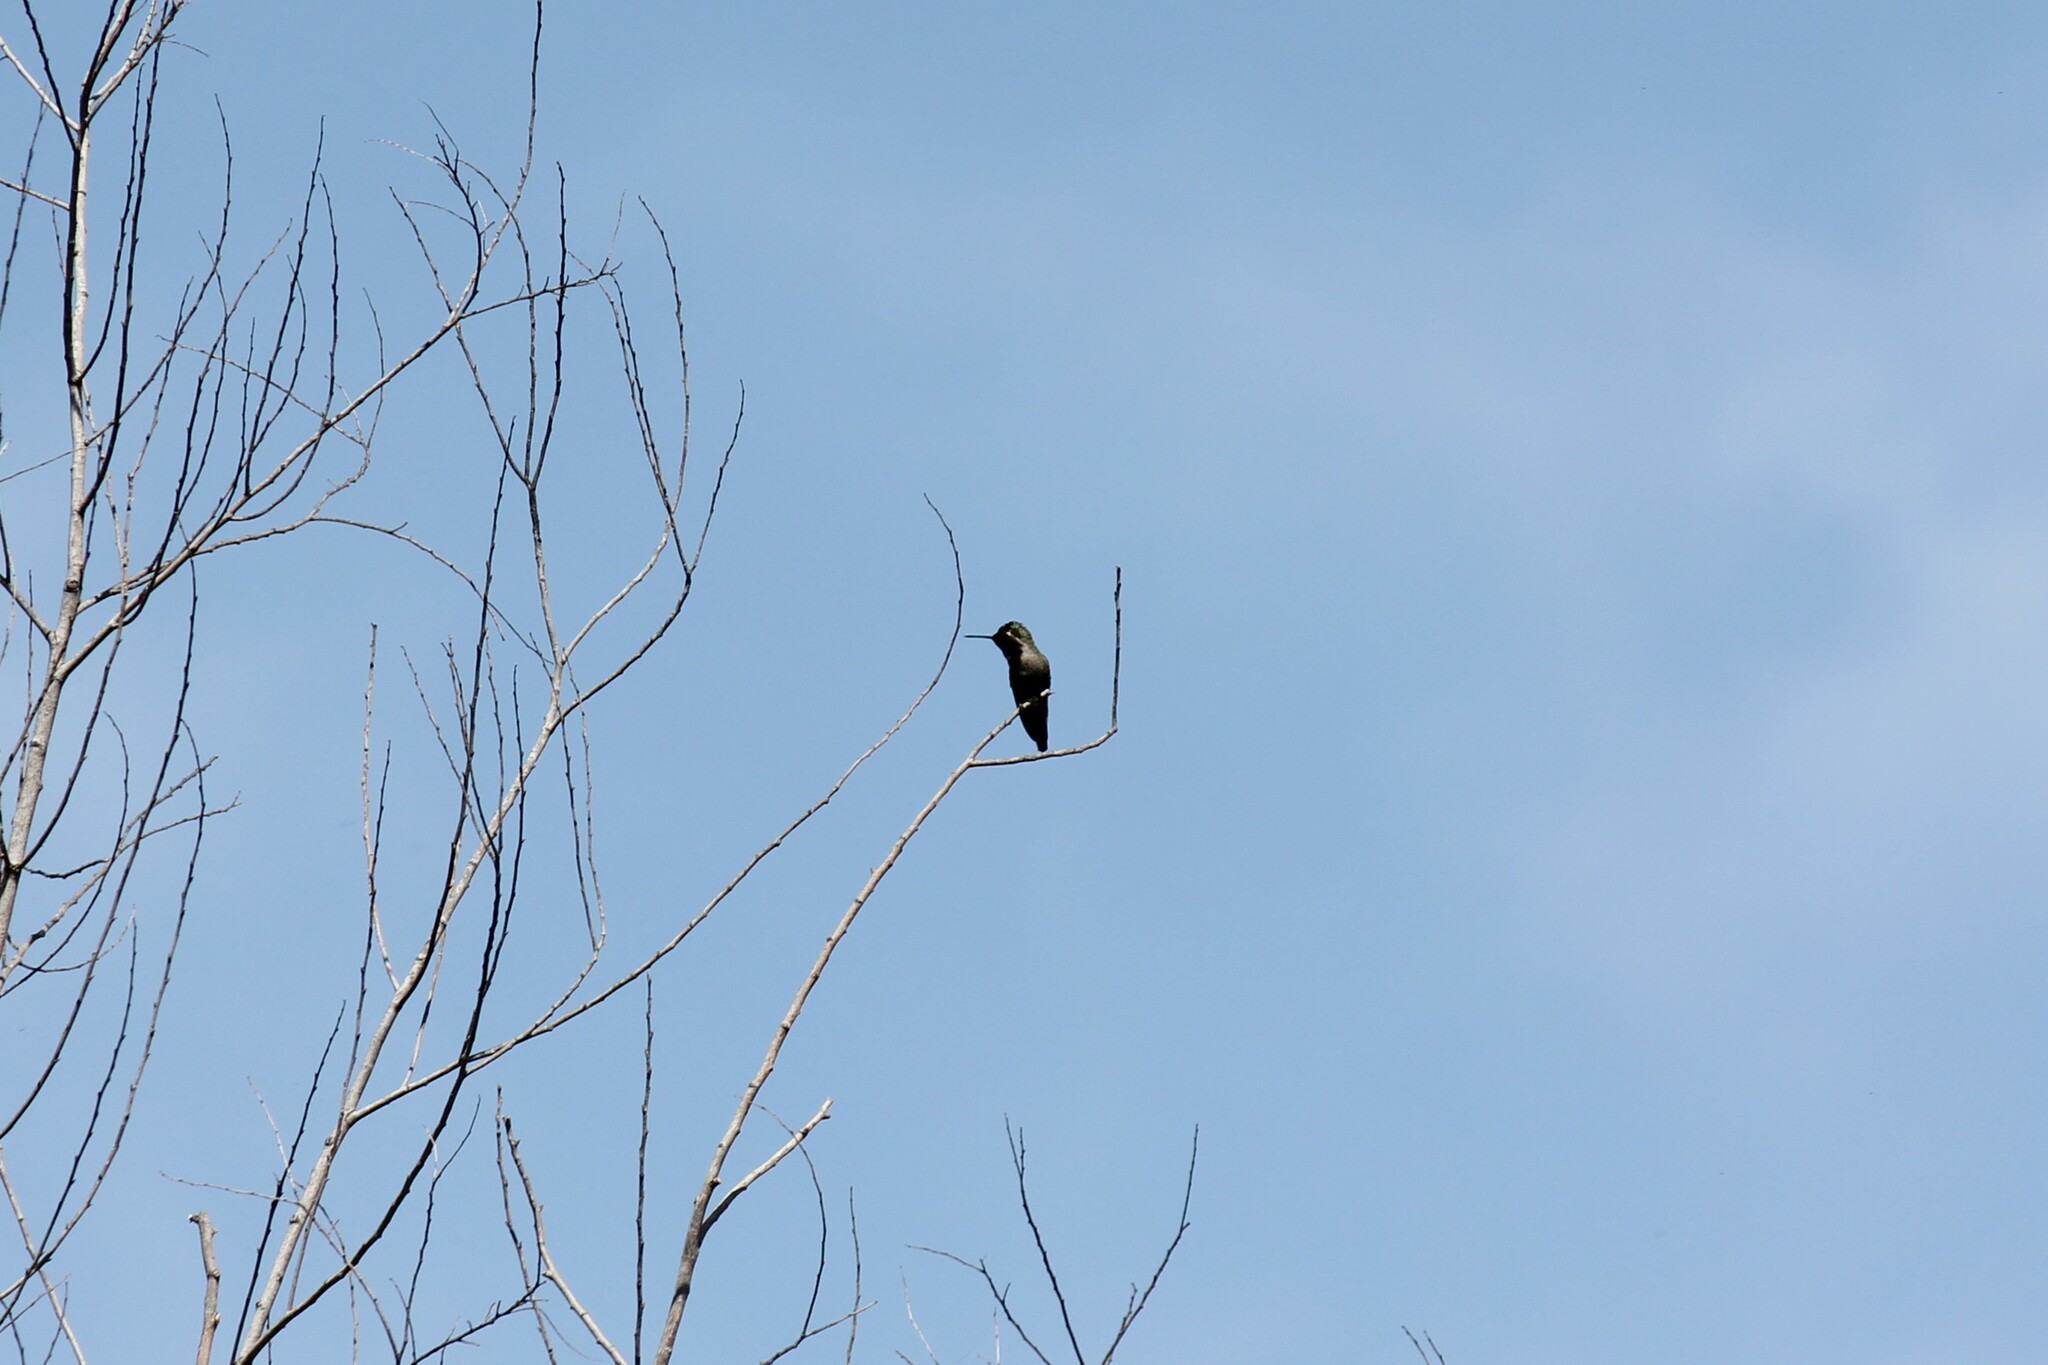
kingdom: Animalia
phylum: Chordata
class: Aves
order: Apodiformes
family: Trochilidae
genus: Calypte
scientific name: Calypte anna
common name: Anna's hummingbird
